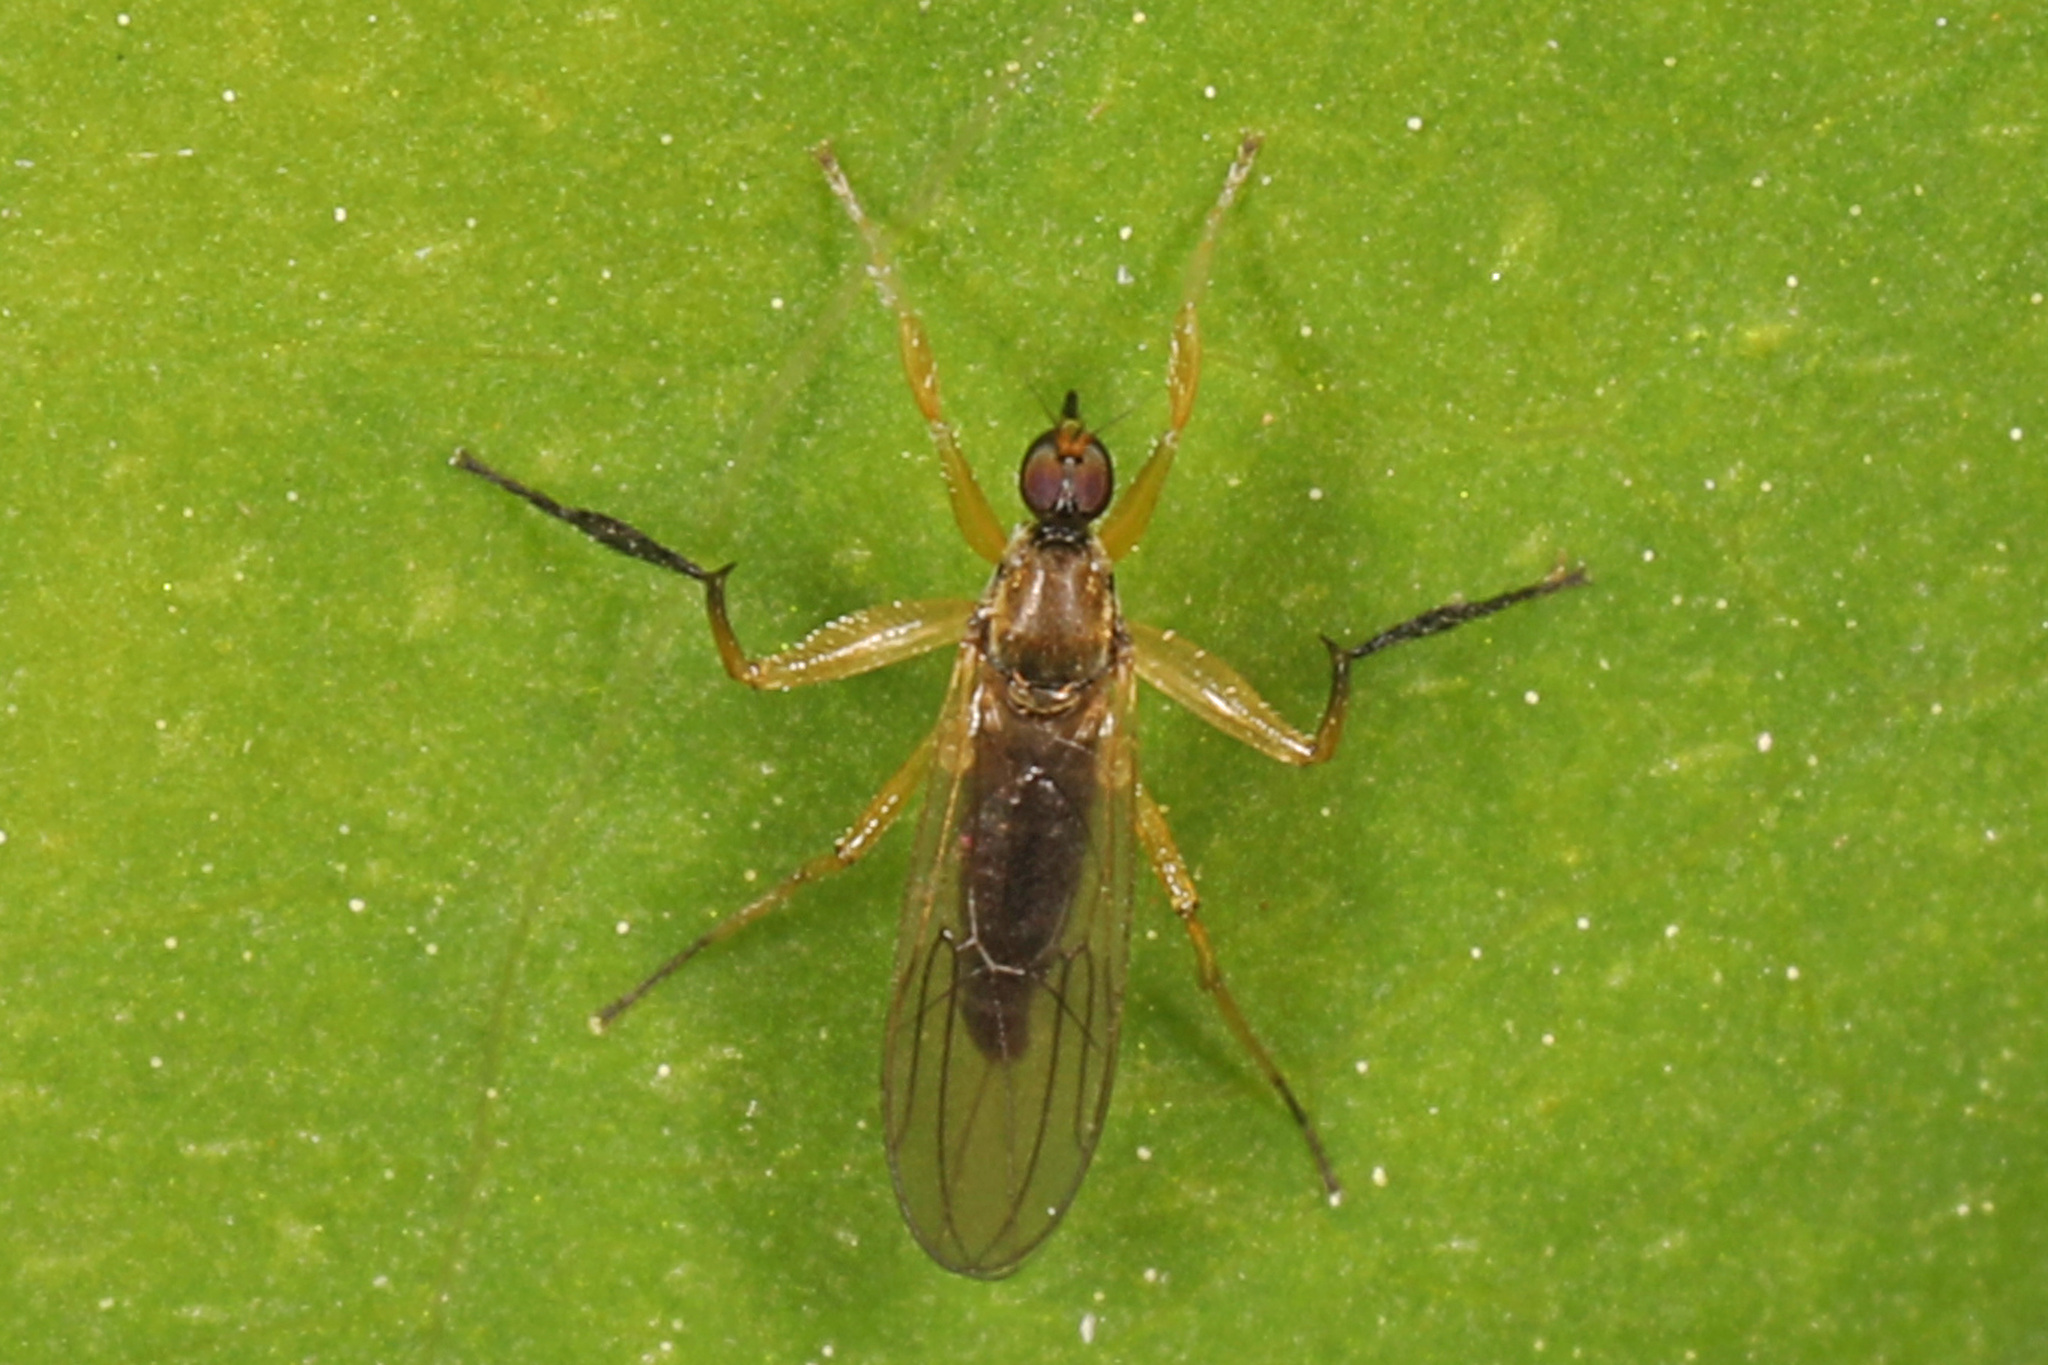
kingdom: Animalia
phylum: Arthropoda
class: Insecta
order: Diptera
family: Hybotidae
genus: Platypalpus
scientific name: Platypalpus discifer
